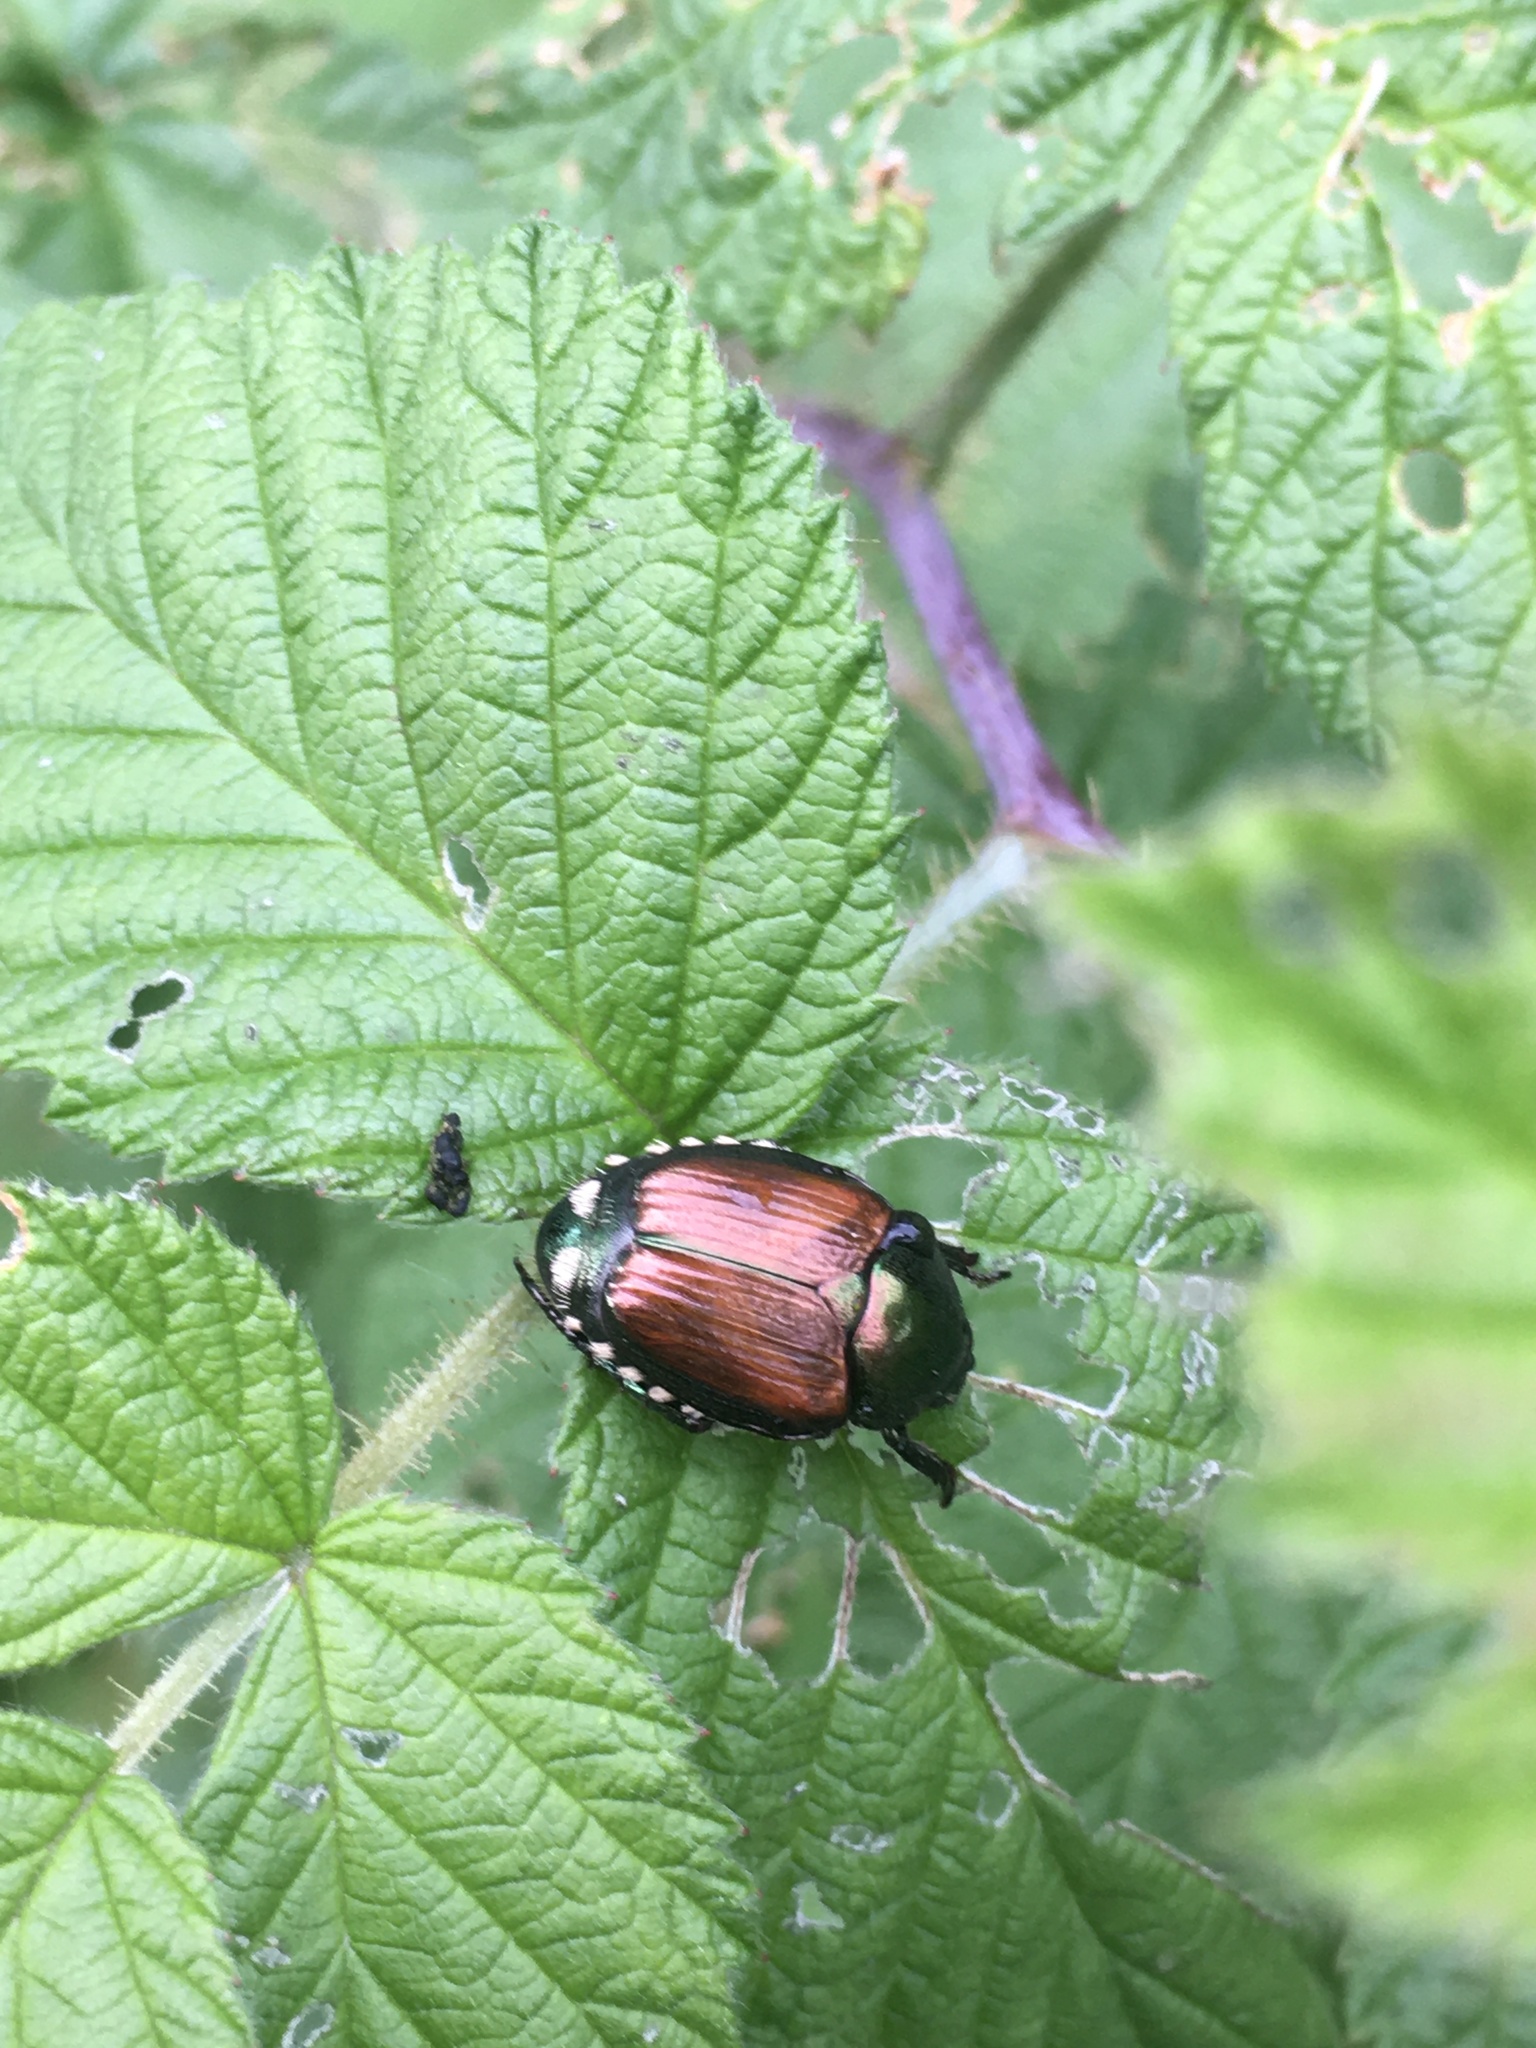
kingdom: Animalia
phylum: Arthropoda
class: Insecta
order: Coleoptera
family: Scarabaeidae
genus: Popillia
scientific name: Popillia japonica
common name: Japanese beetle
